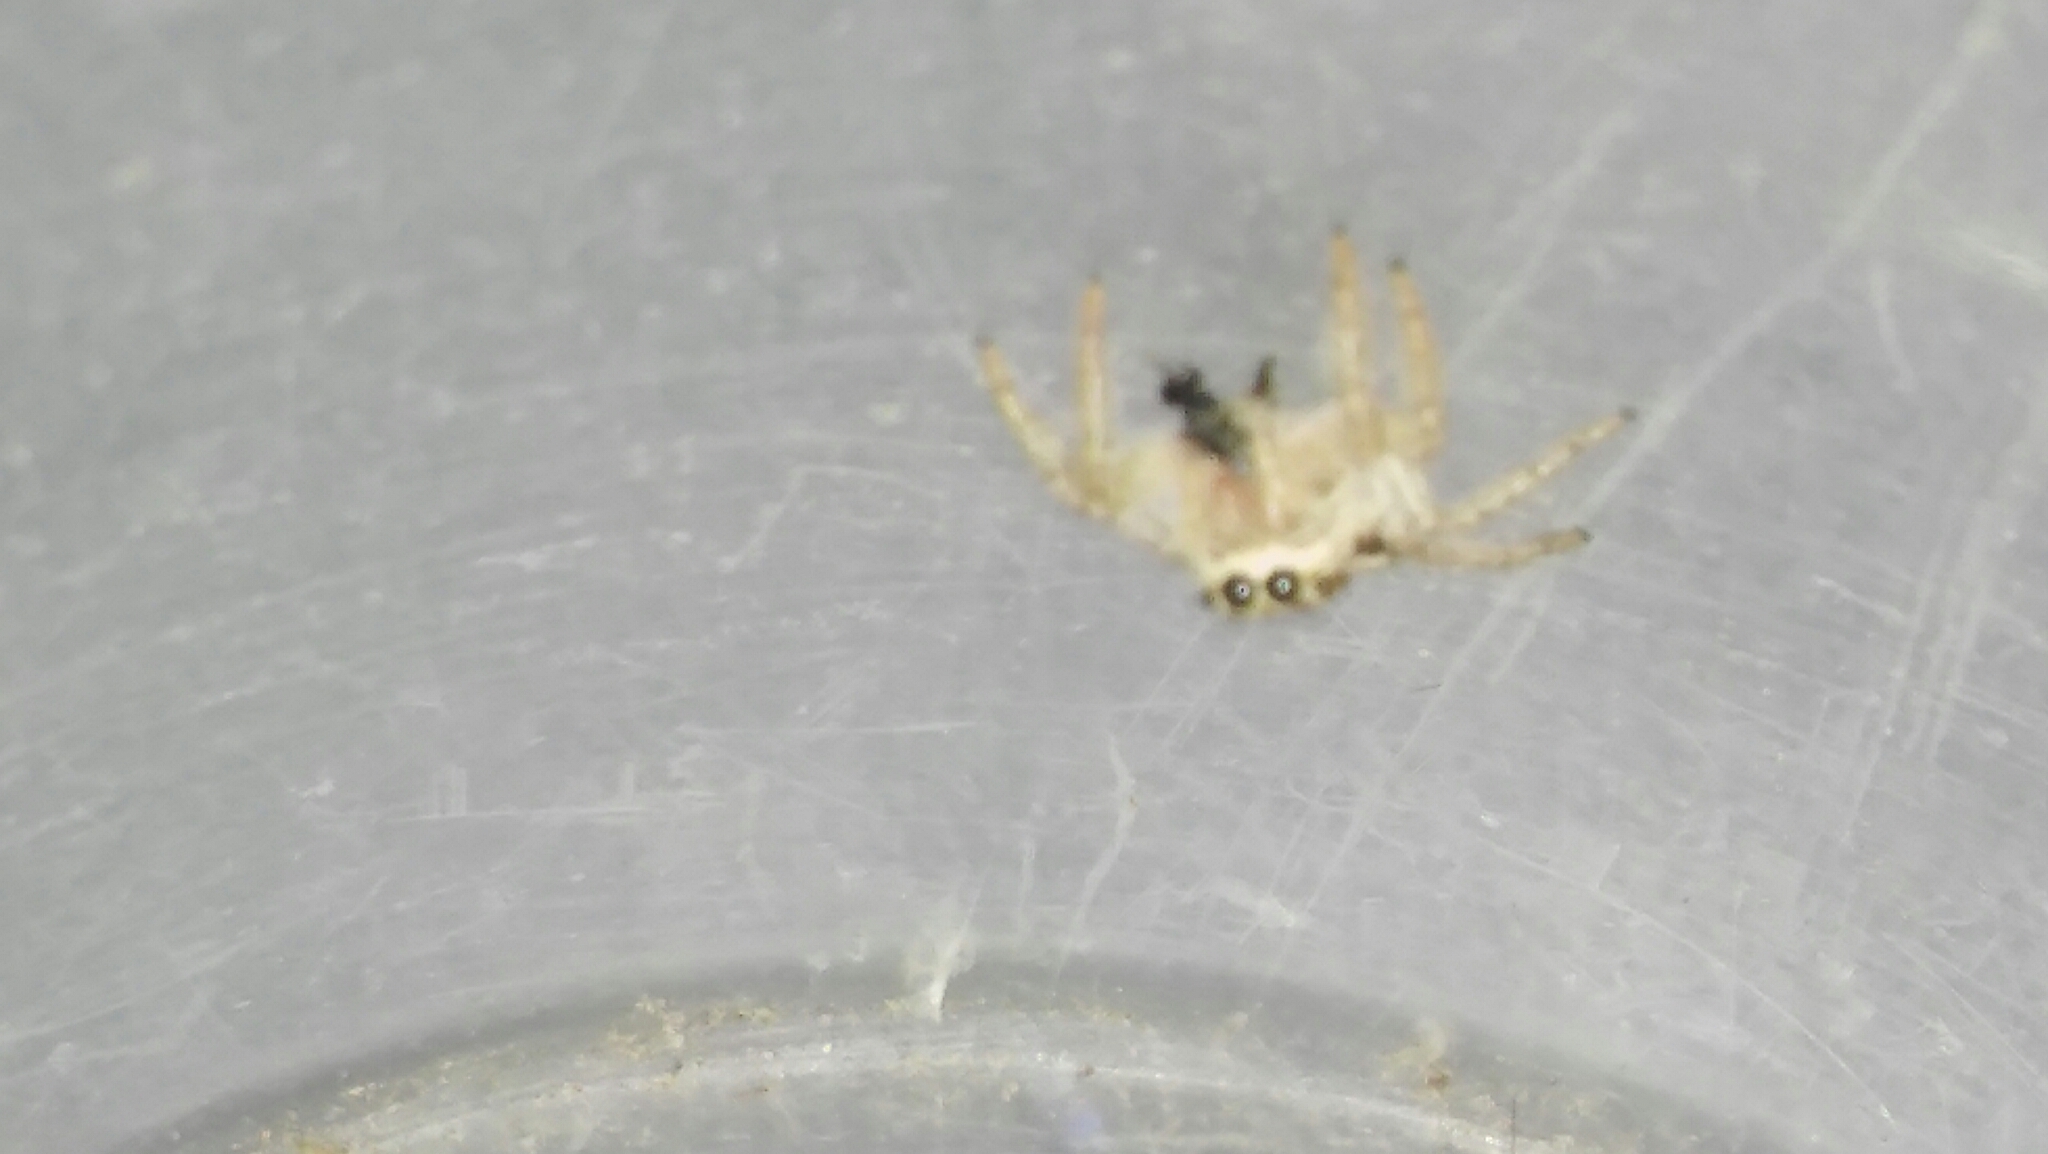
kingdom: Animalia
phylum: Arthropoda
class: Arachnida
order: Araneae
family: Salticidae
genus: Megafreya
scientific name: Megafreya sutrix
